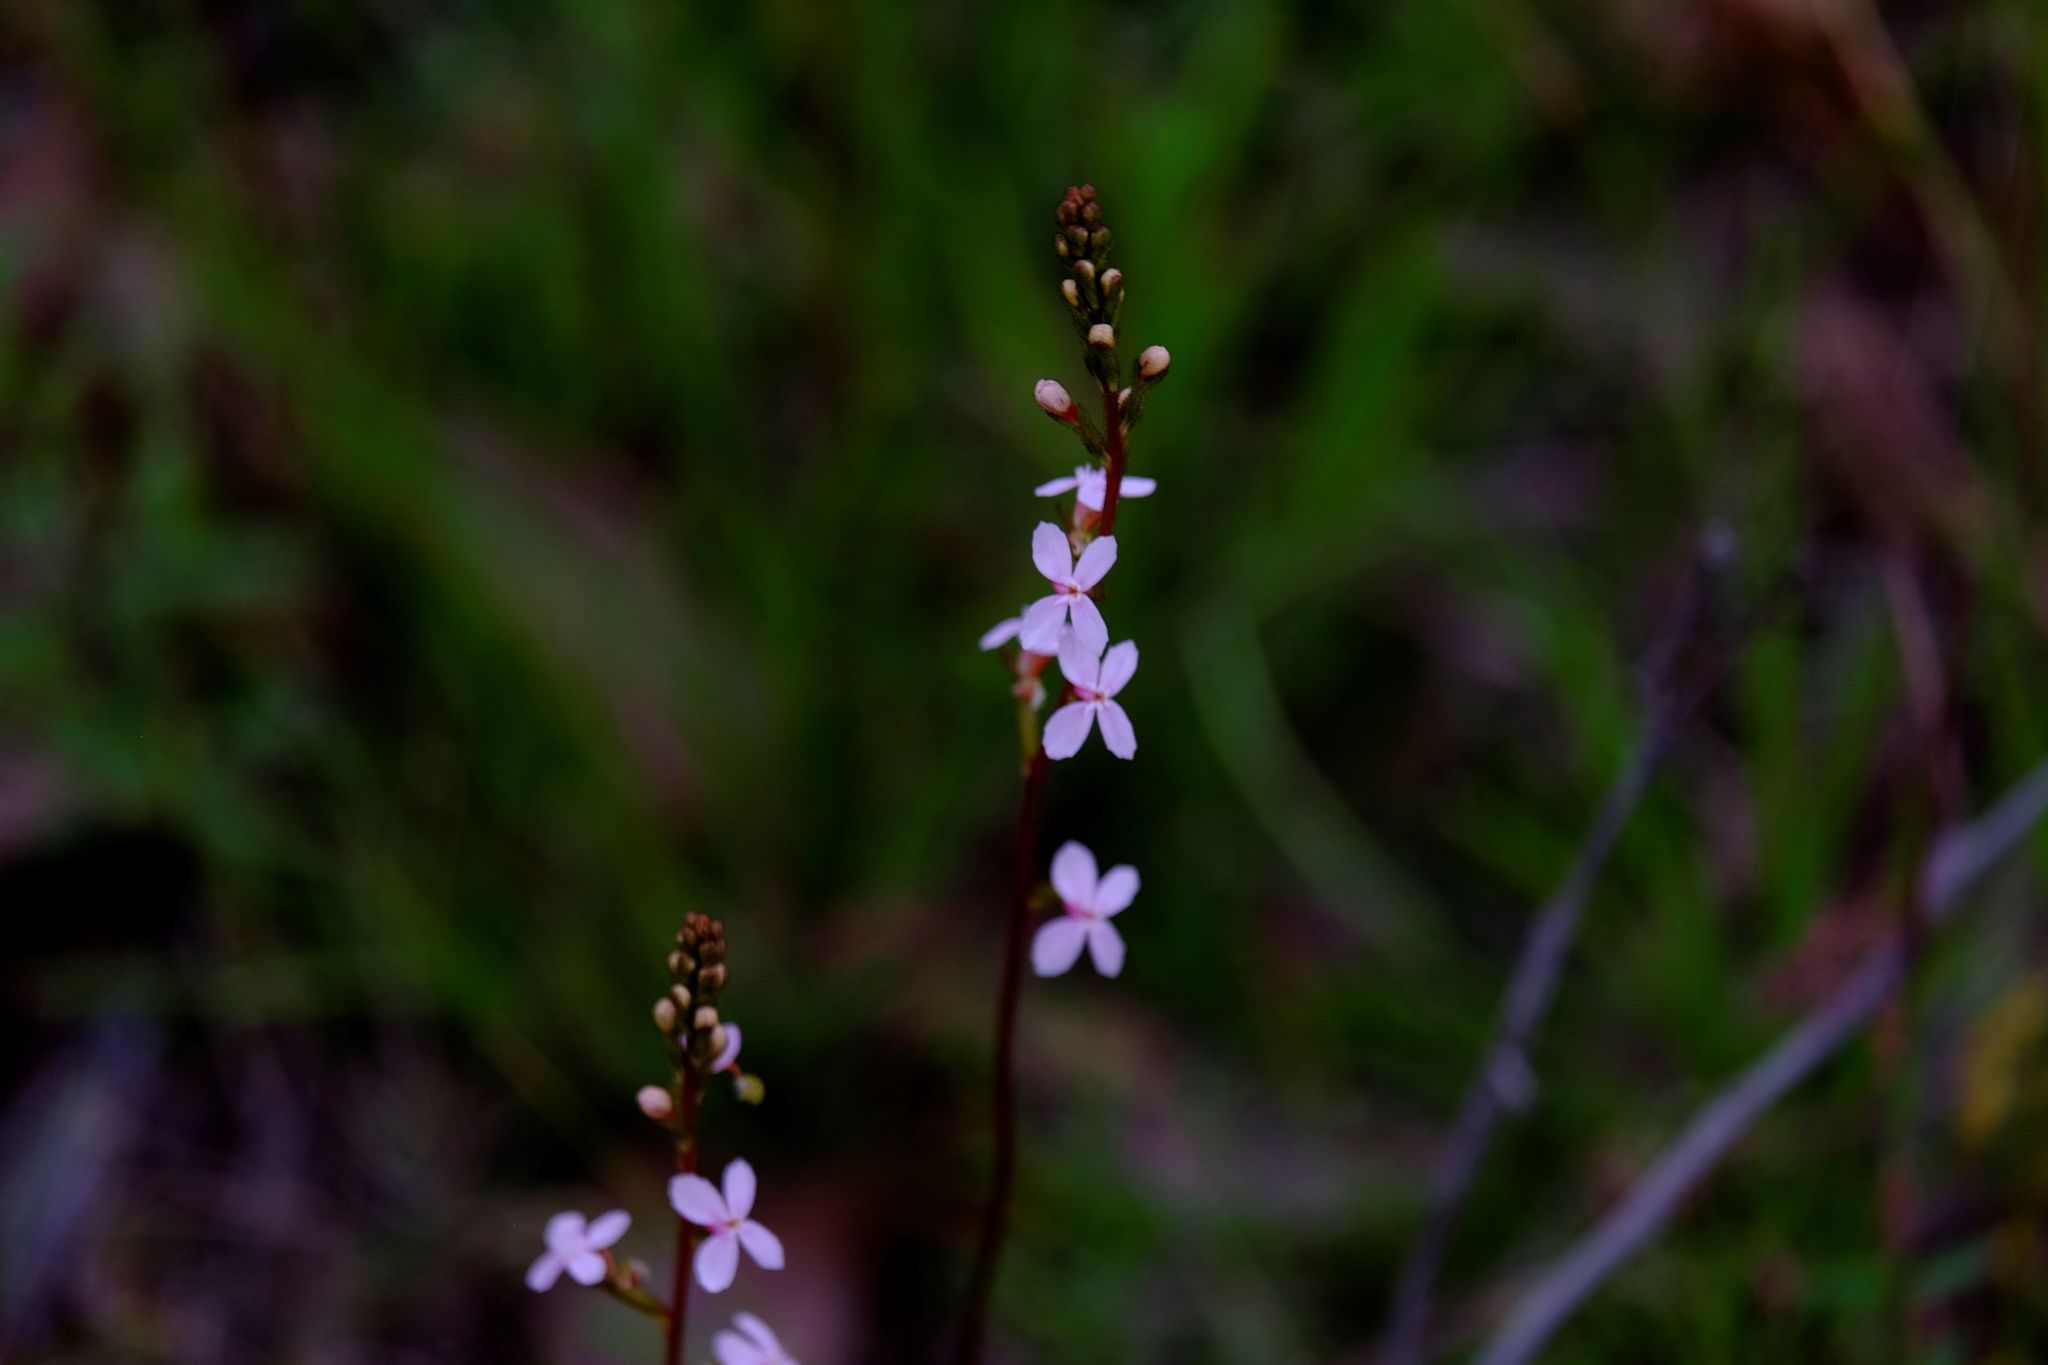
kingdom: Plantae
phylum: Tracheophyta
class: Magnoliopsida
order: Asterales
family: Stylidiaceae
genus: Stylidium
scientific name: Stylidium armeria
